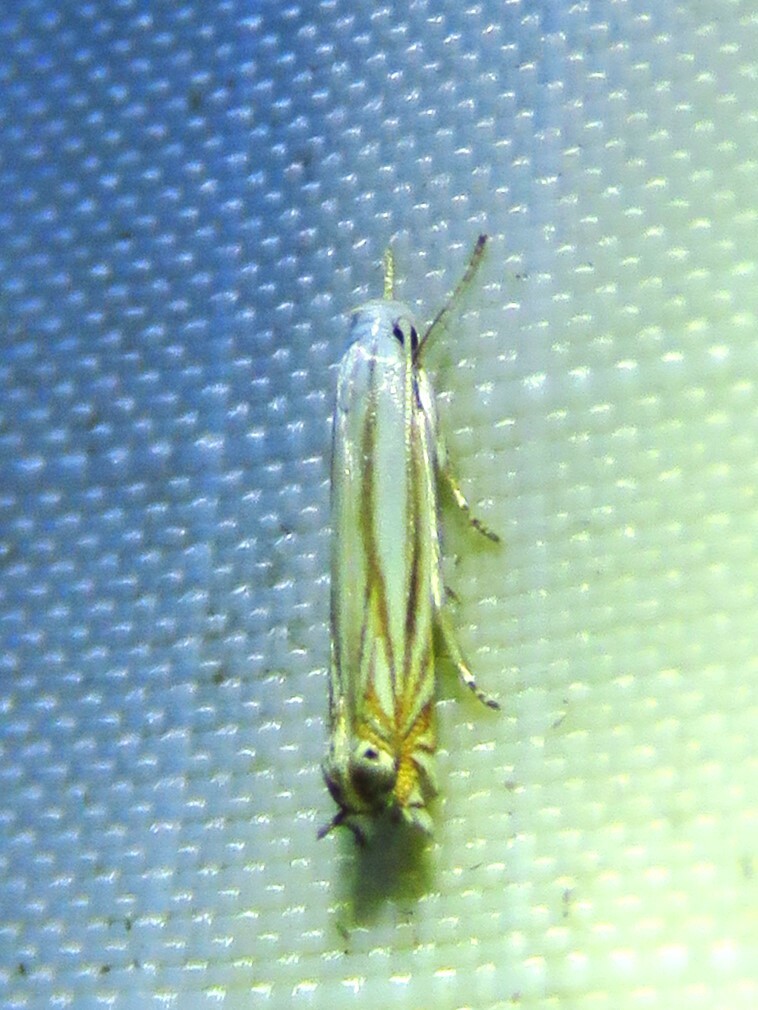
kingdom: Animalia
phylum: Arthropoda
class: Insecta
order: Lepidoptera
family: Gelechiidae
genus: Polyhymno
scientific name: Polyhymno luteostrigella
